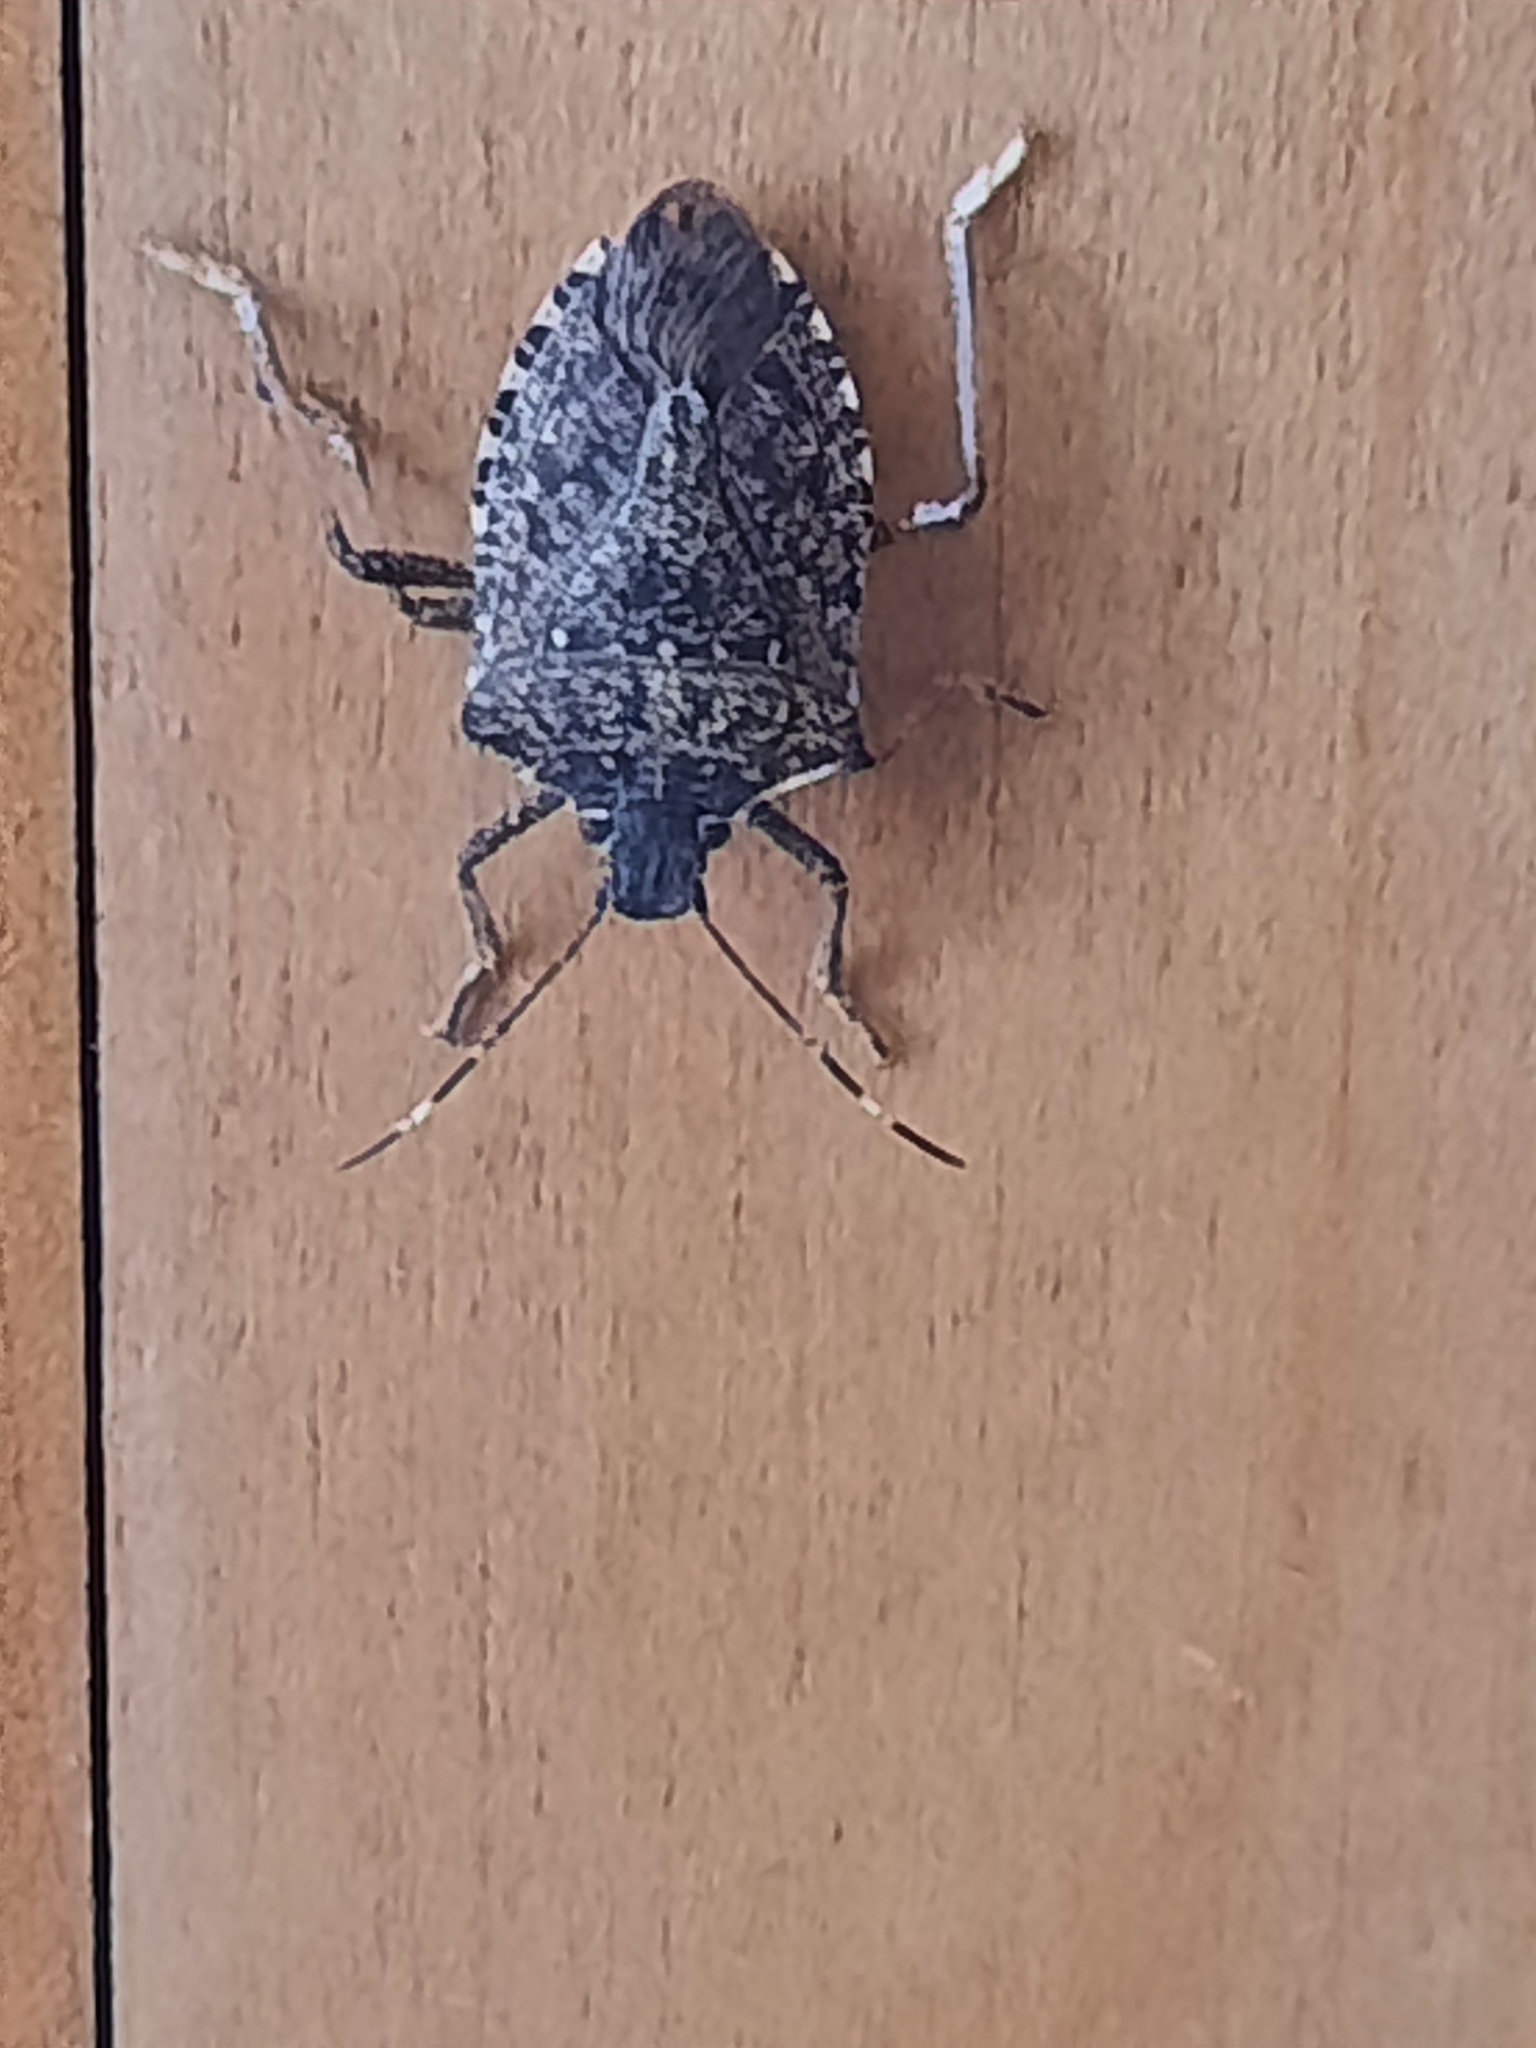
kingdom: Animalia
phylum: Arthropoda
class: Insecta
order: Hemiptera
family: Pentatomidae
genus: Halyomorpha
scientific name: Halyomorpha halys
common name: Brown marmorated stink bug
